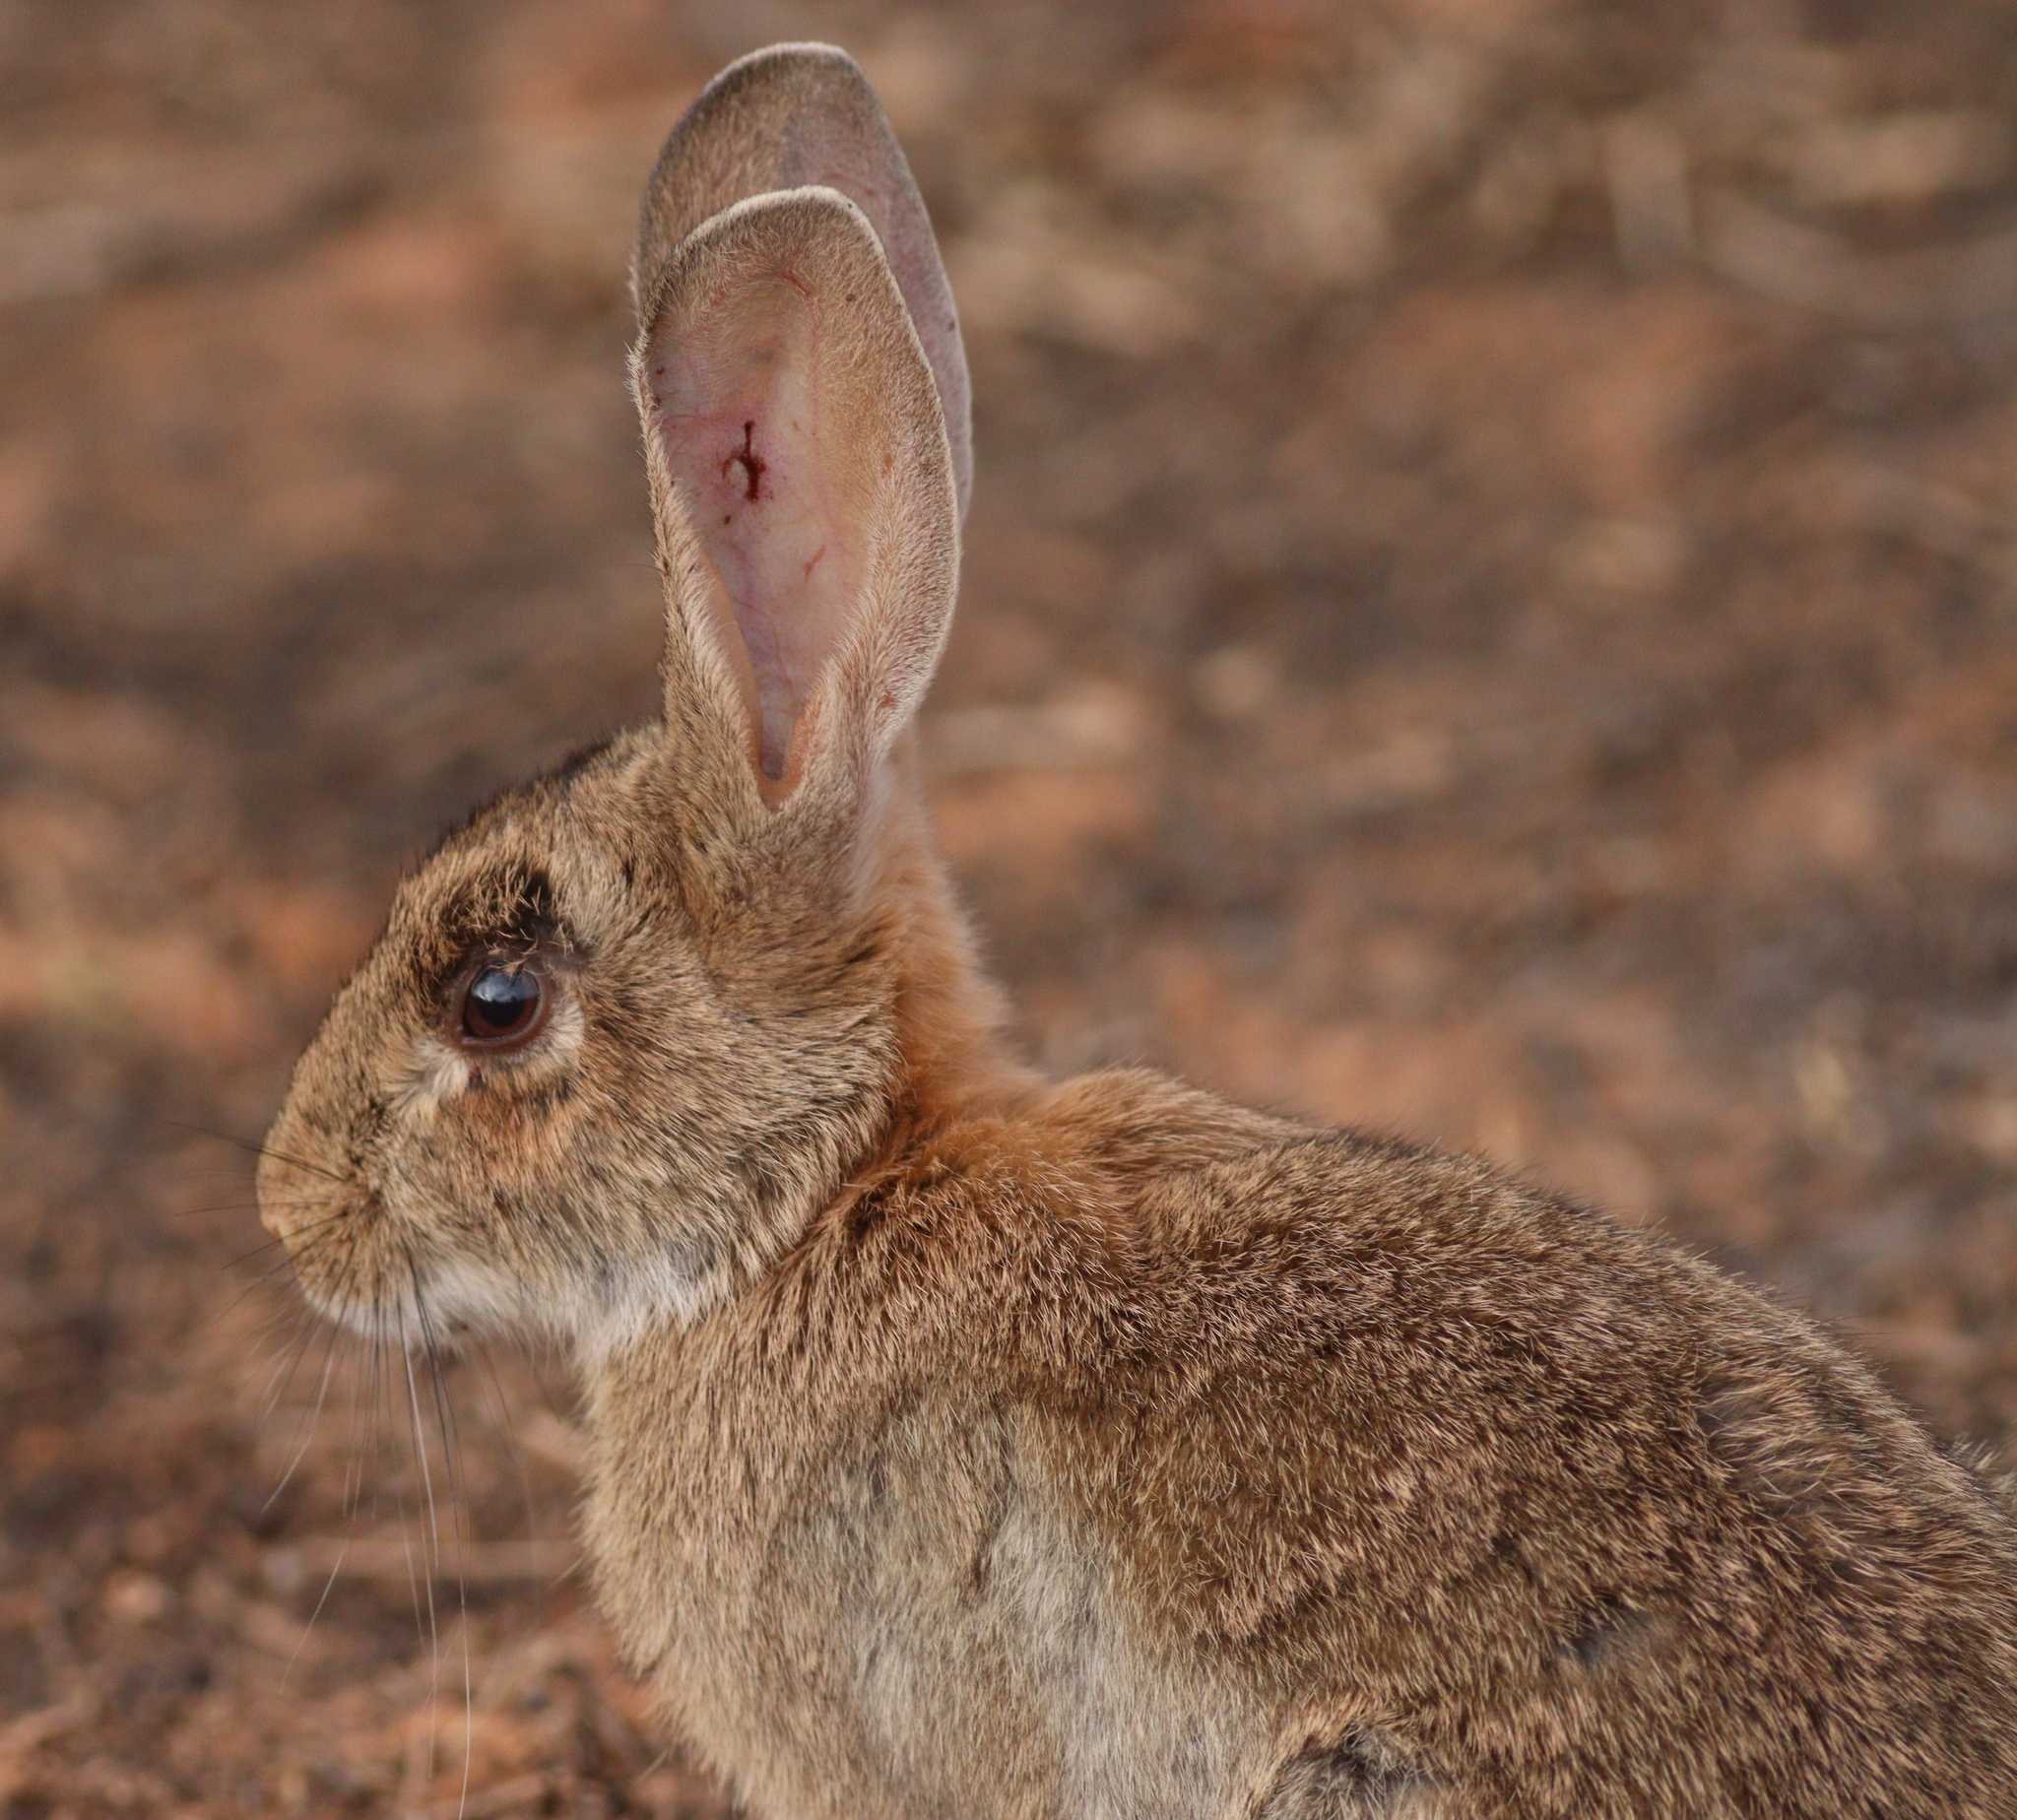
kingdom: Animalia
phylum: Chordata
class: Mammalia
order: Lagomorpha
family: Leporidae
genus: Oryctolagus
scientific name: Oryctolagus cuniculus
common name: European rabbit
